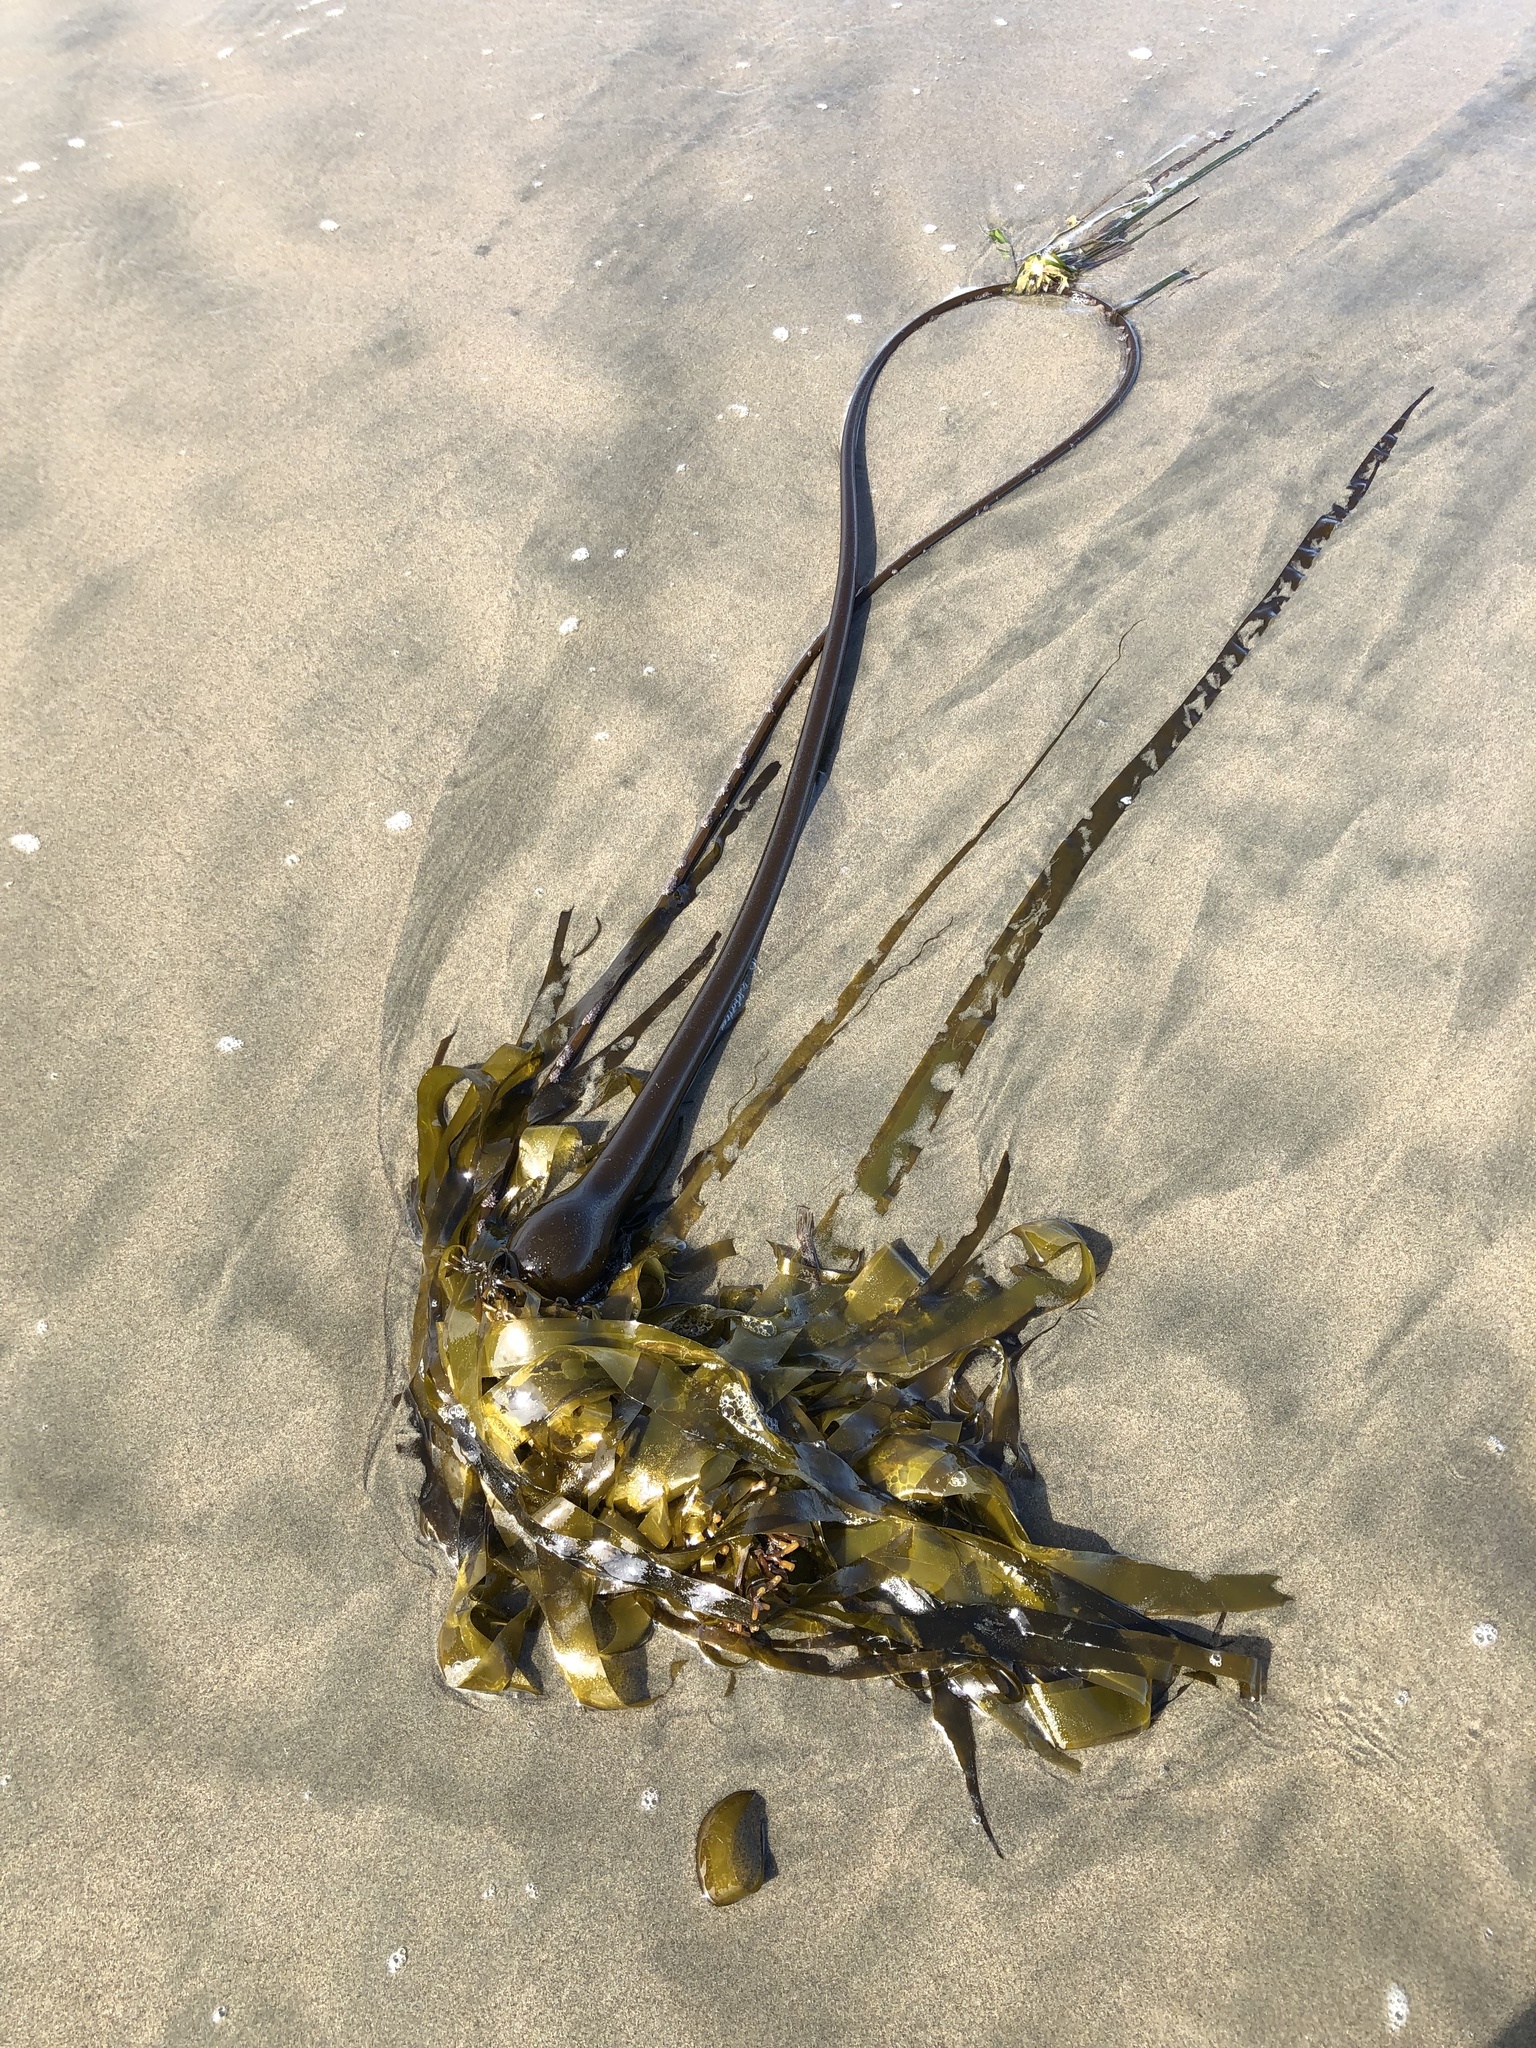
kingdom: Chromista
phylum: Ochrophyta
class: Phaeophyceae
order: Laminariales
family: Laminariaceae
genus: Nereocystis
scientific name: Nereocystis luetkeana
